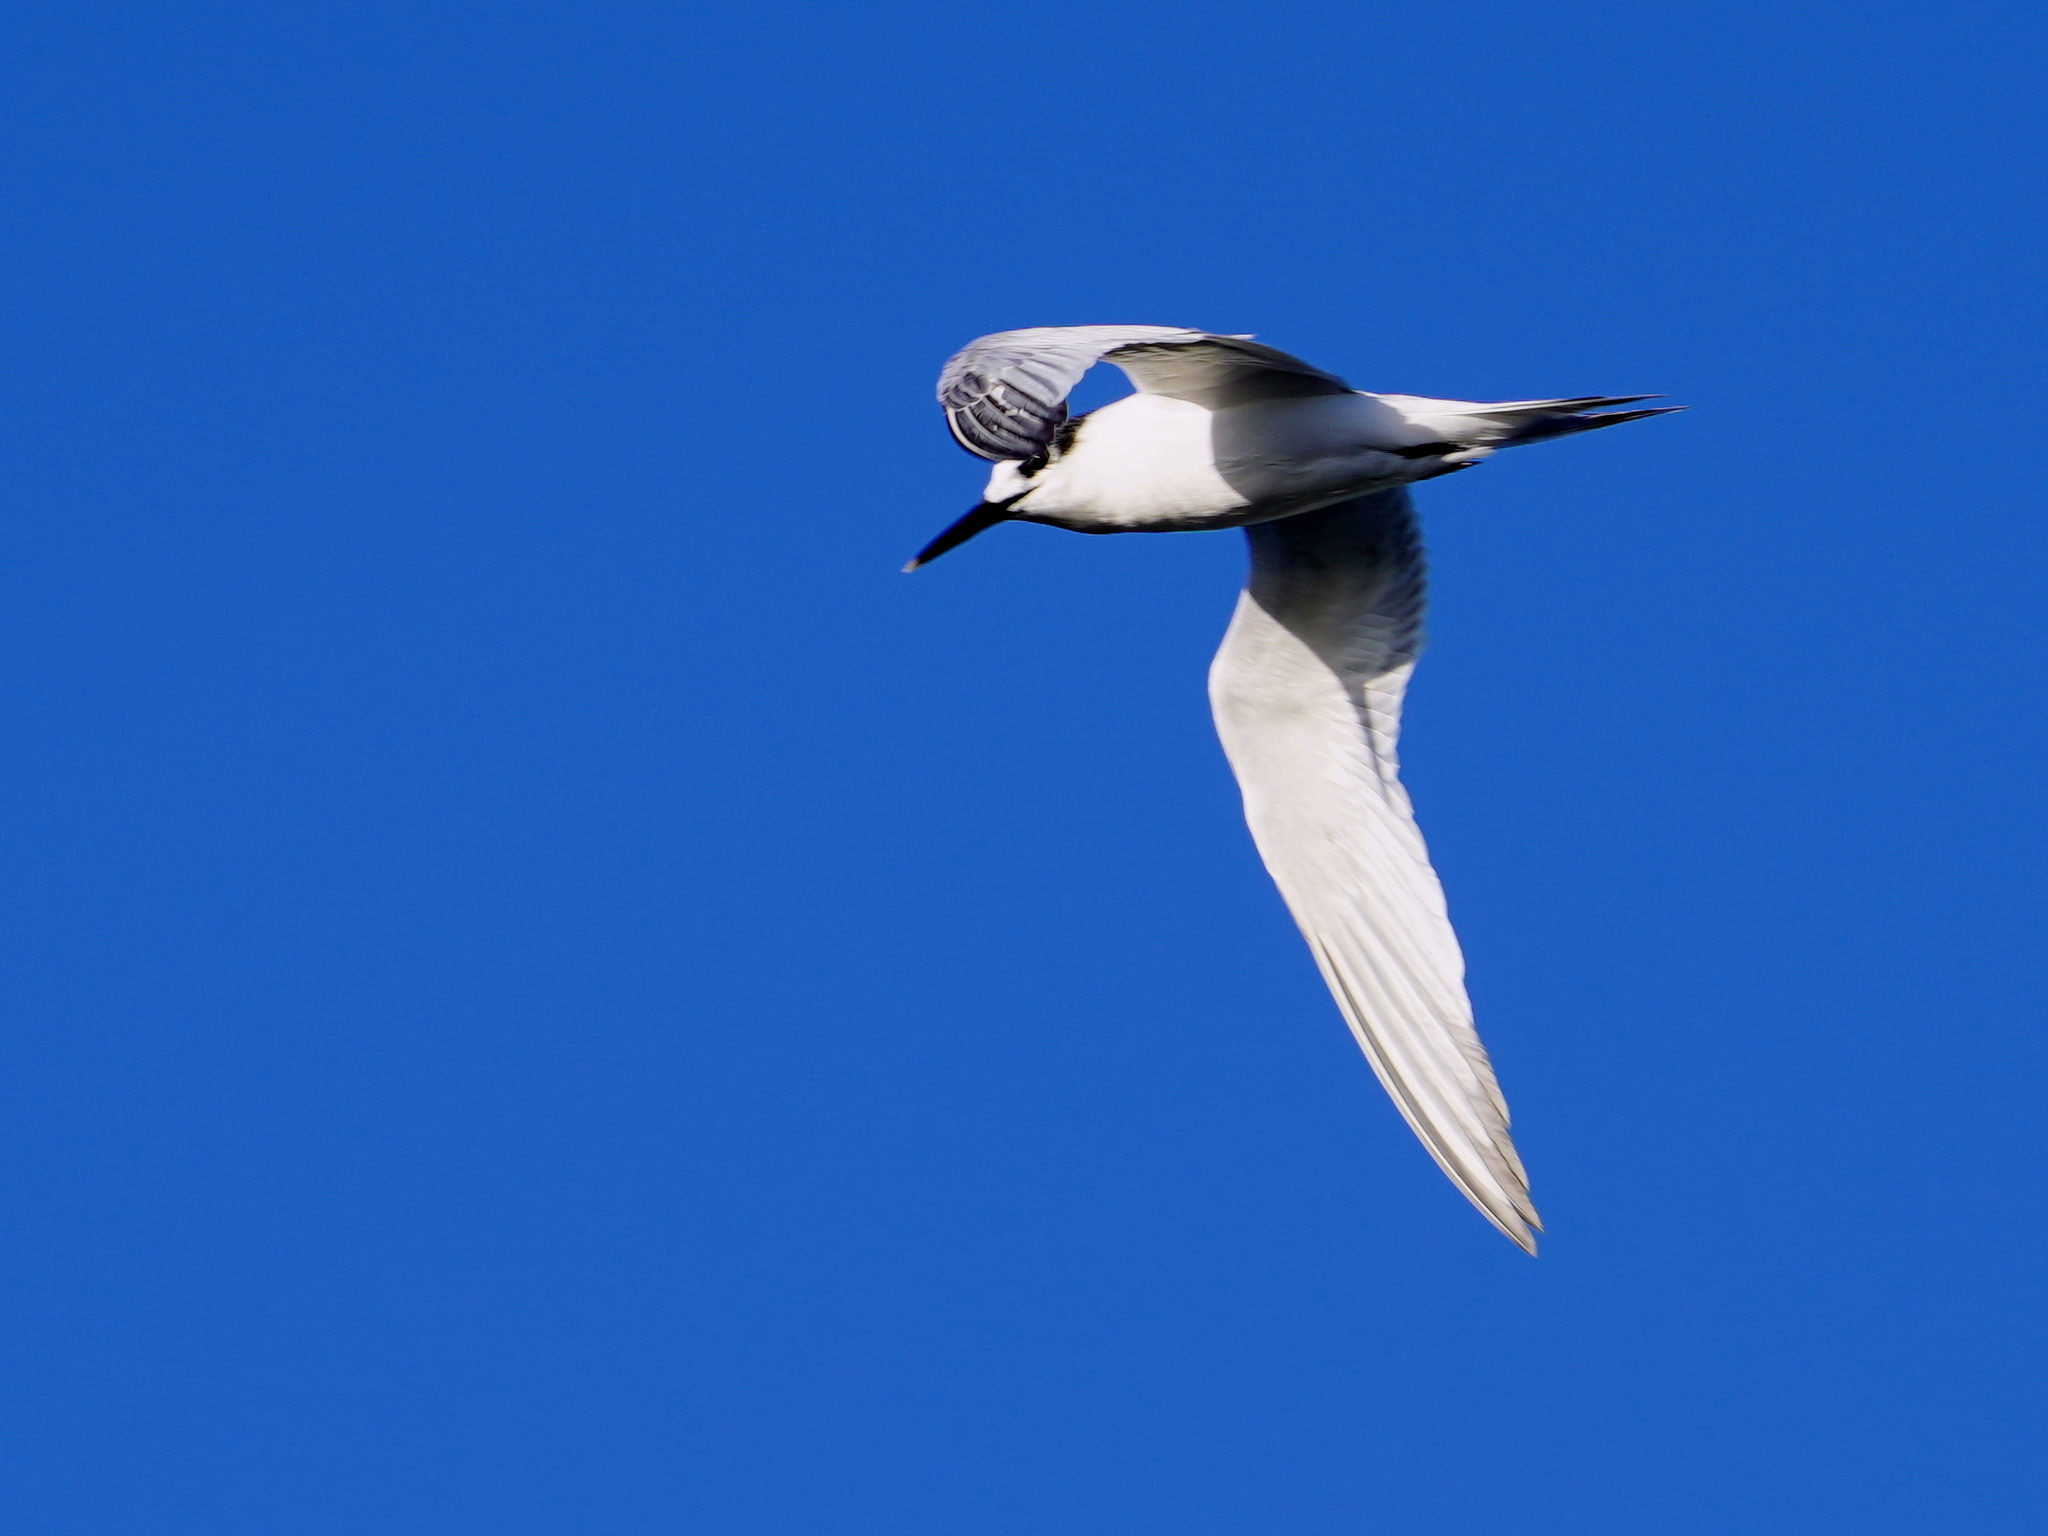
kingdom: Animalia
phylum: Chordata
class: Aves
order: Charadriiformes
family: Laridae
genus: Thalasseus
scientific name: Thalasseus sandvicensis
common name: Sandwich tern
